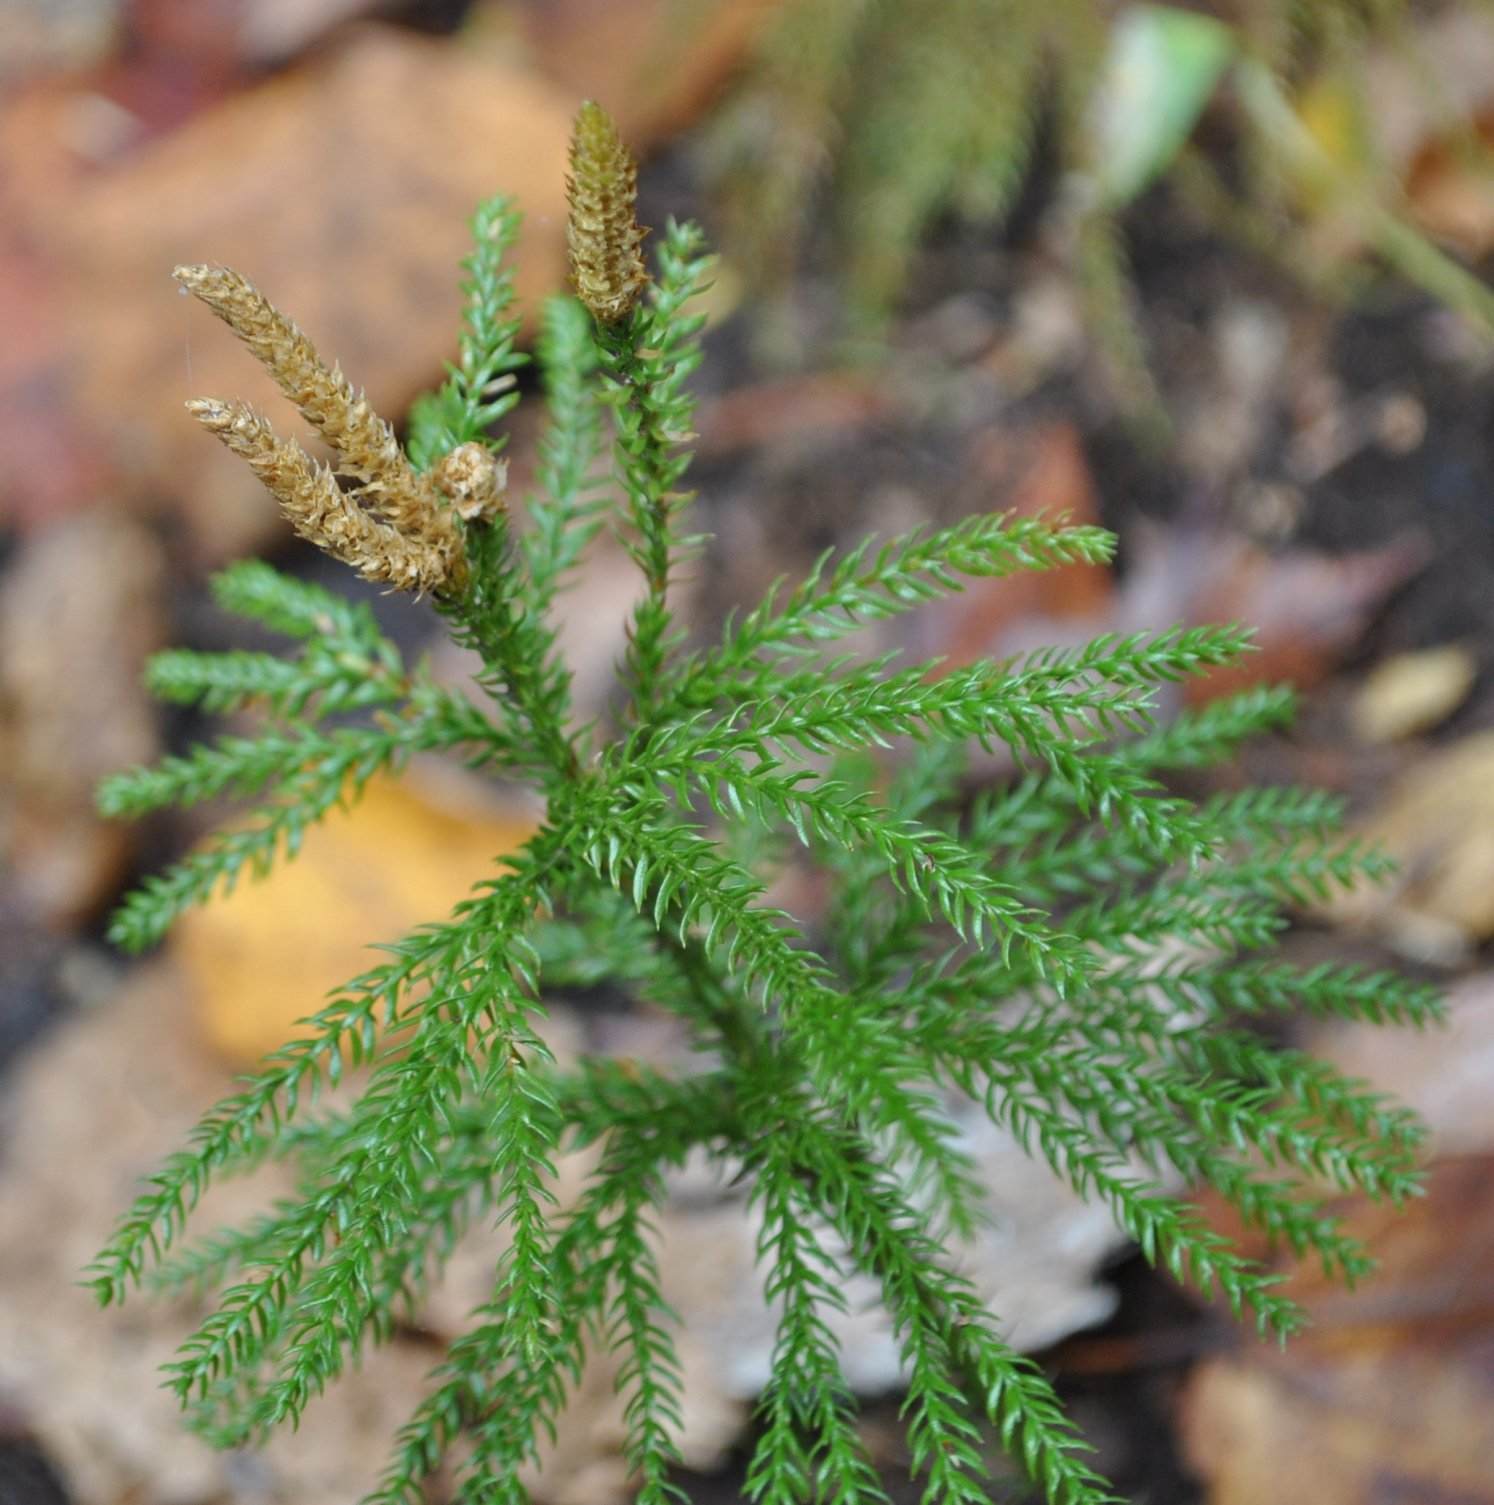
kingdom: Plantae
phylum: Tracheophyta
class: Lycopodiopsida
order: Lycopodiales
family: Lycopodiaceae
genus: Dendrolycopodium
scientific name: Dendrolycopodium dendroideum
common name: Northern tree-clubmoss
